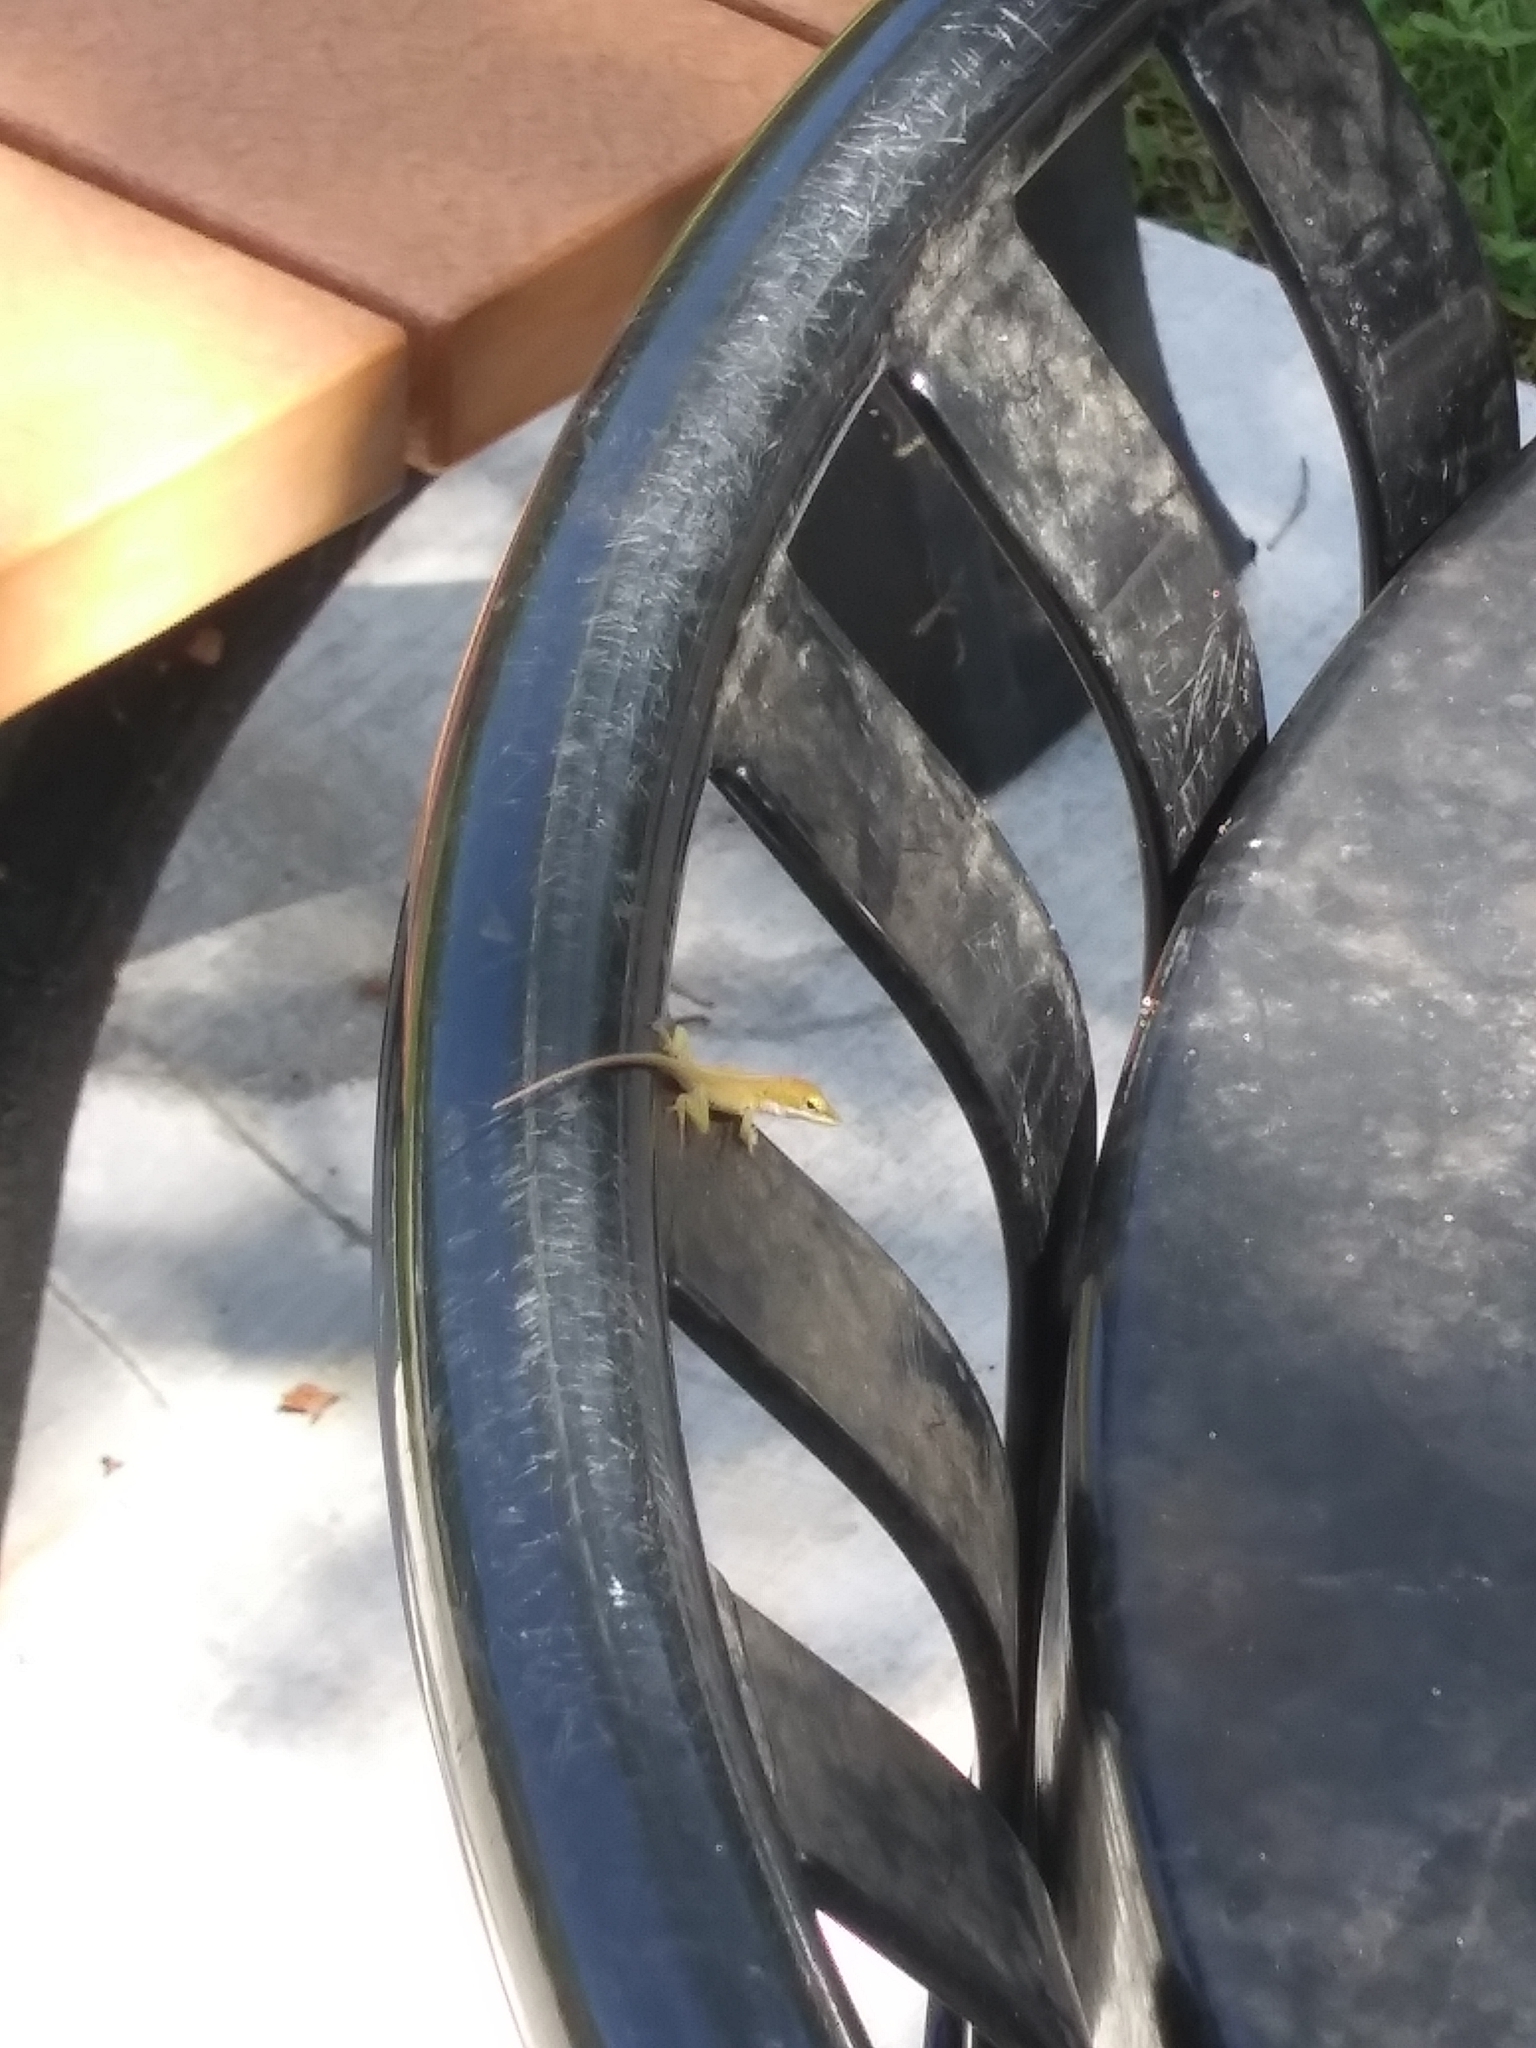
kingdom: Animalia
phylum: Chordata
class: Squamata
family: Dactyloidae
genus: Anolis
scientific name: Anolis carolinensis
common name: Green anole
